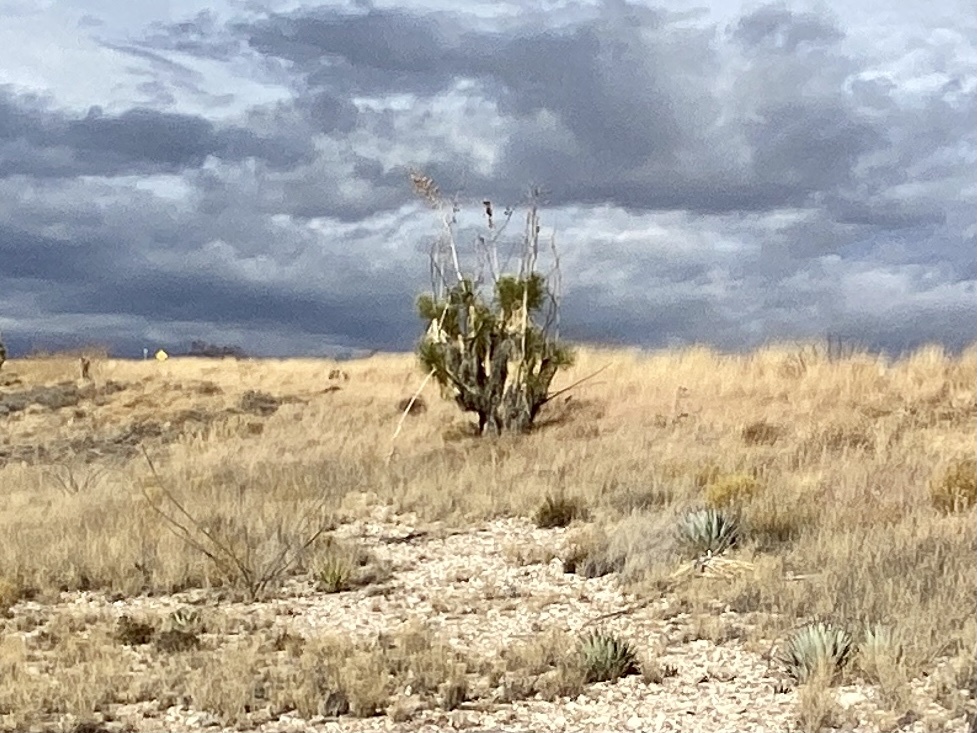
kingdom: Plantae
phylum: Tracheophyta
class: Liliopsida
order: Asparagales
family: Asparagaceae
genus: Yucca
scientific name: Yucca elata
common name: Palmella
